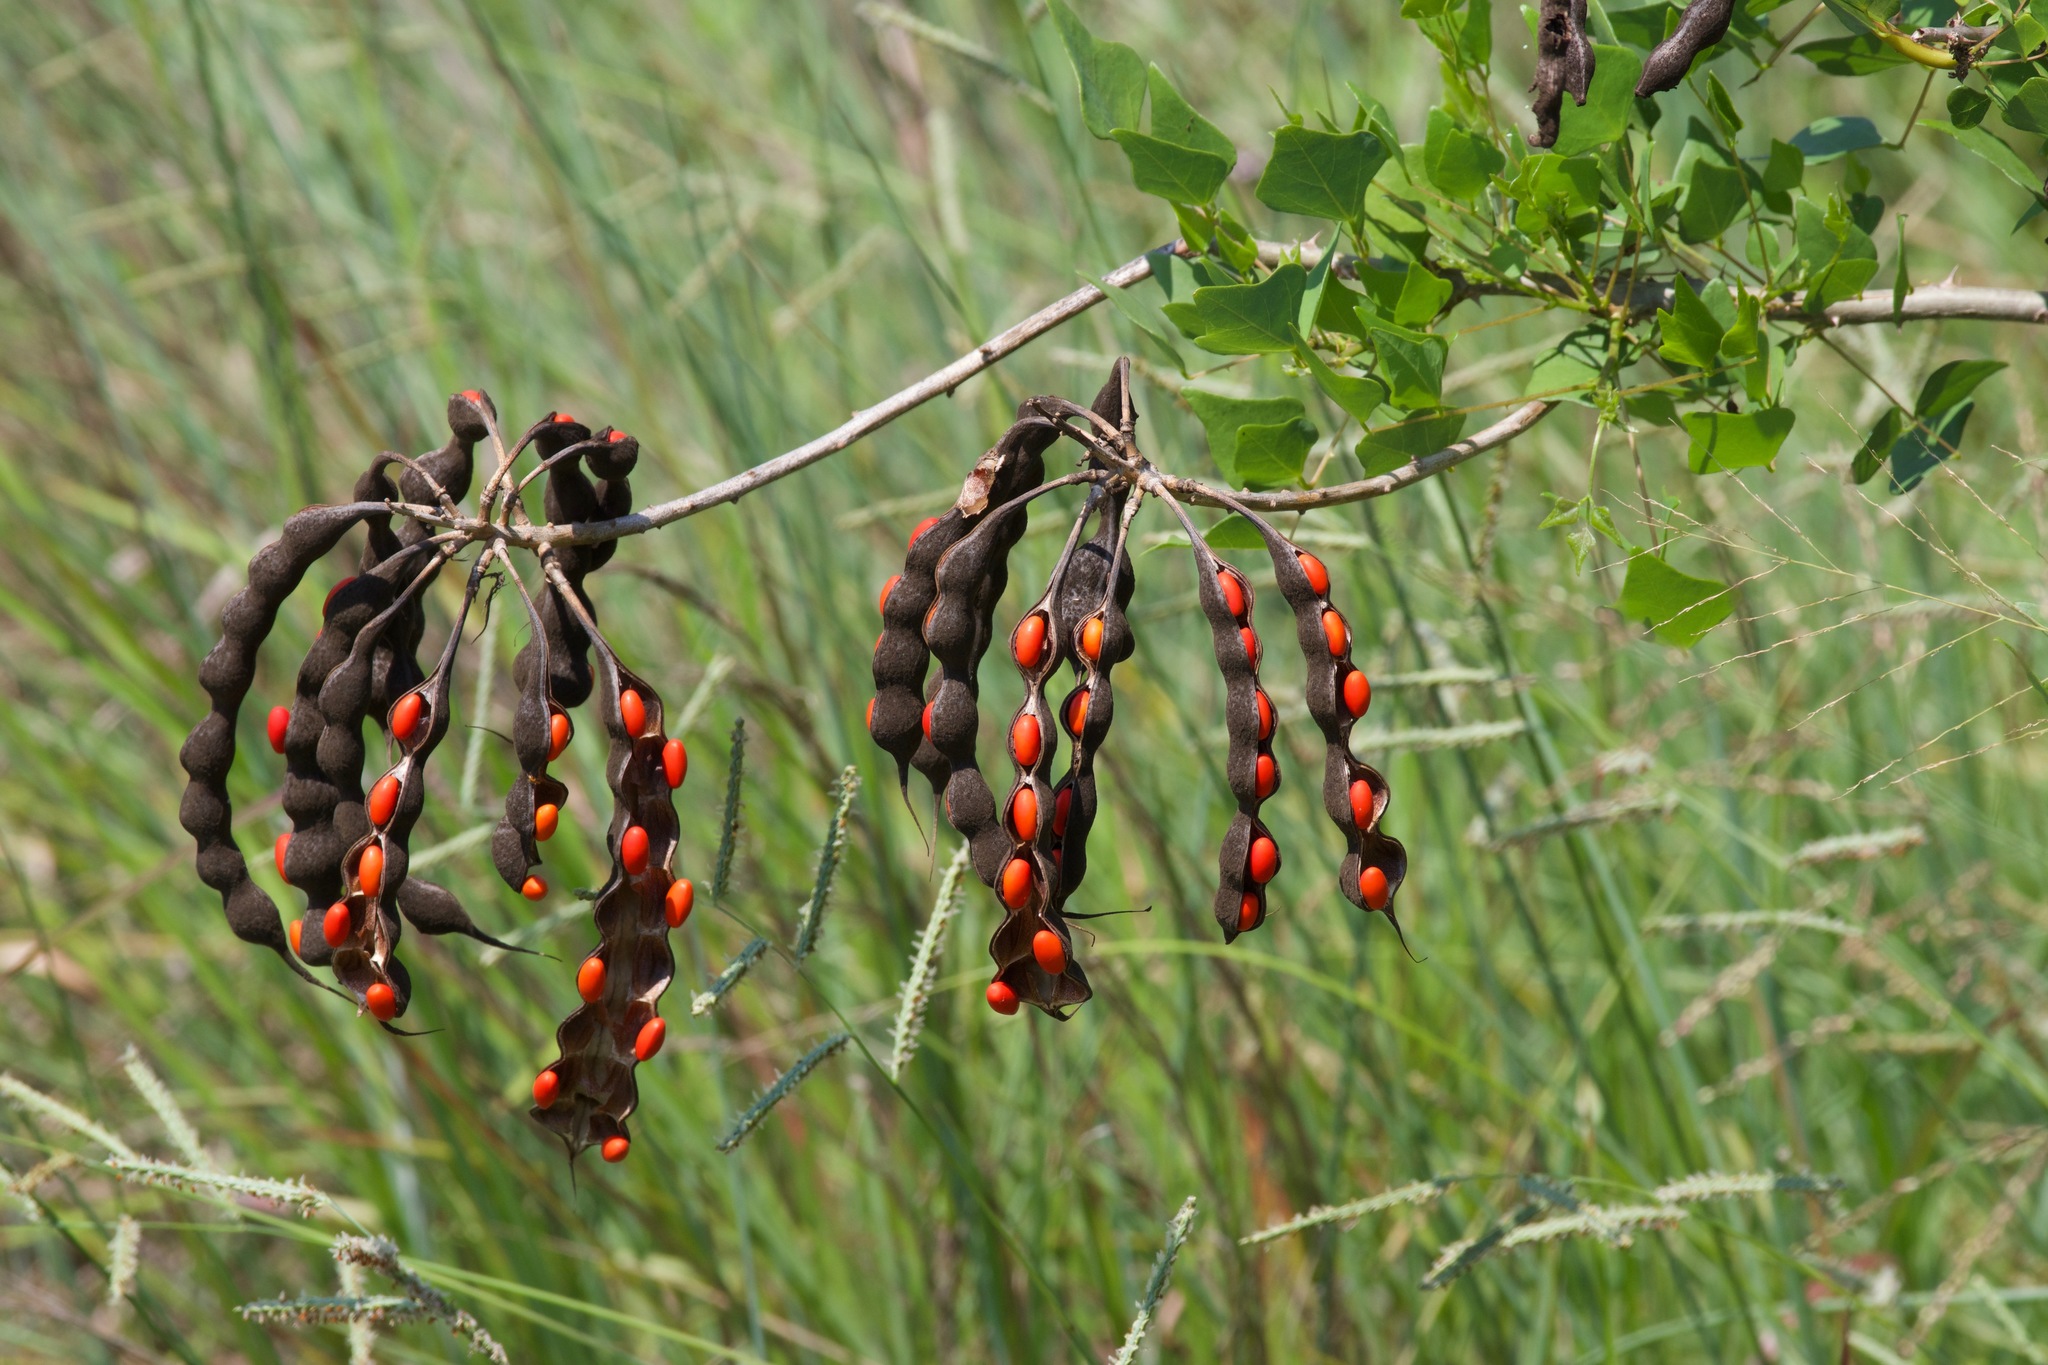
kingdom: Plantae
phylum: Tracheophyta
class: Magnoliopsida
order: Fabales
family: Fabaceae
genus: Erythrina
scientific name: Erythrina herbacea
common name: Coral-bean
